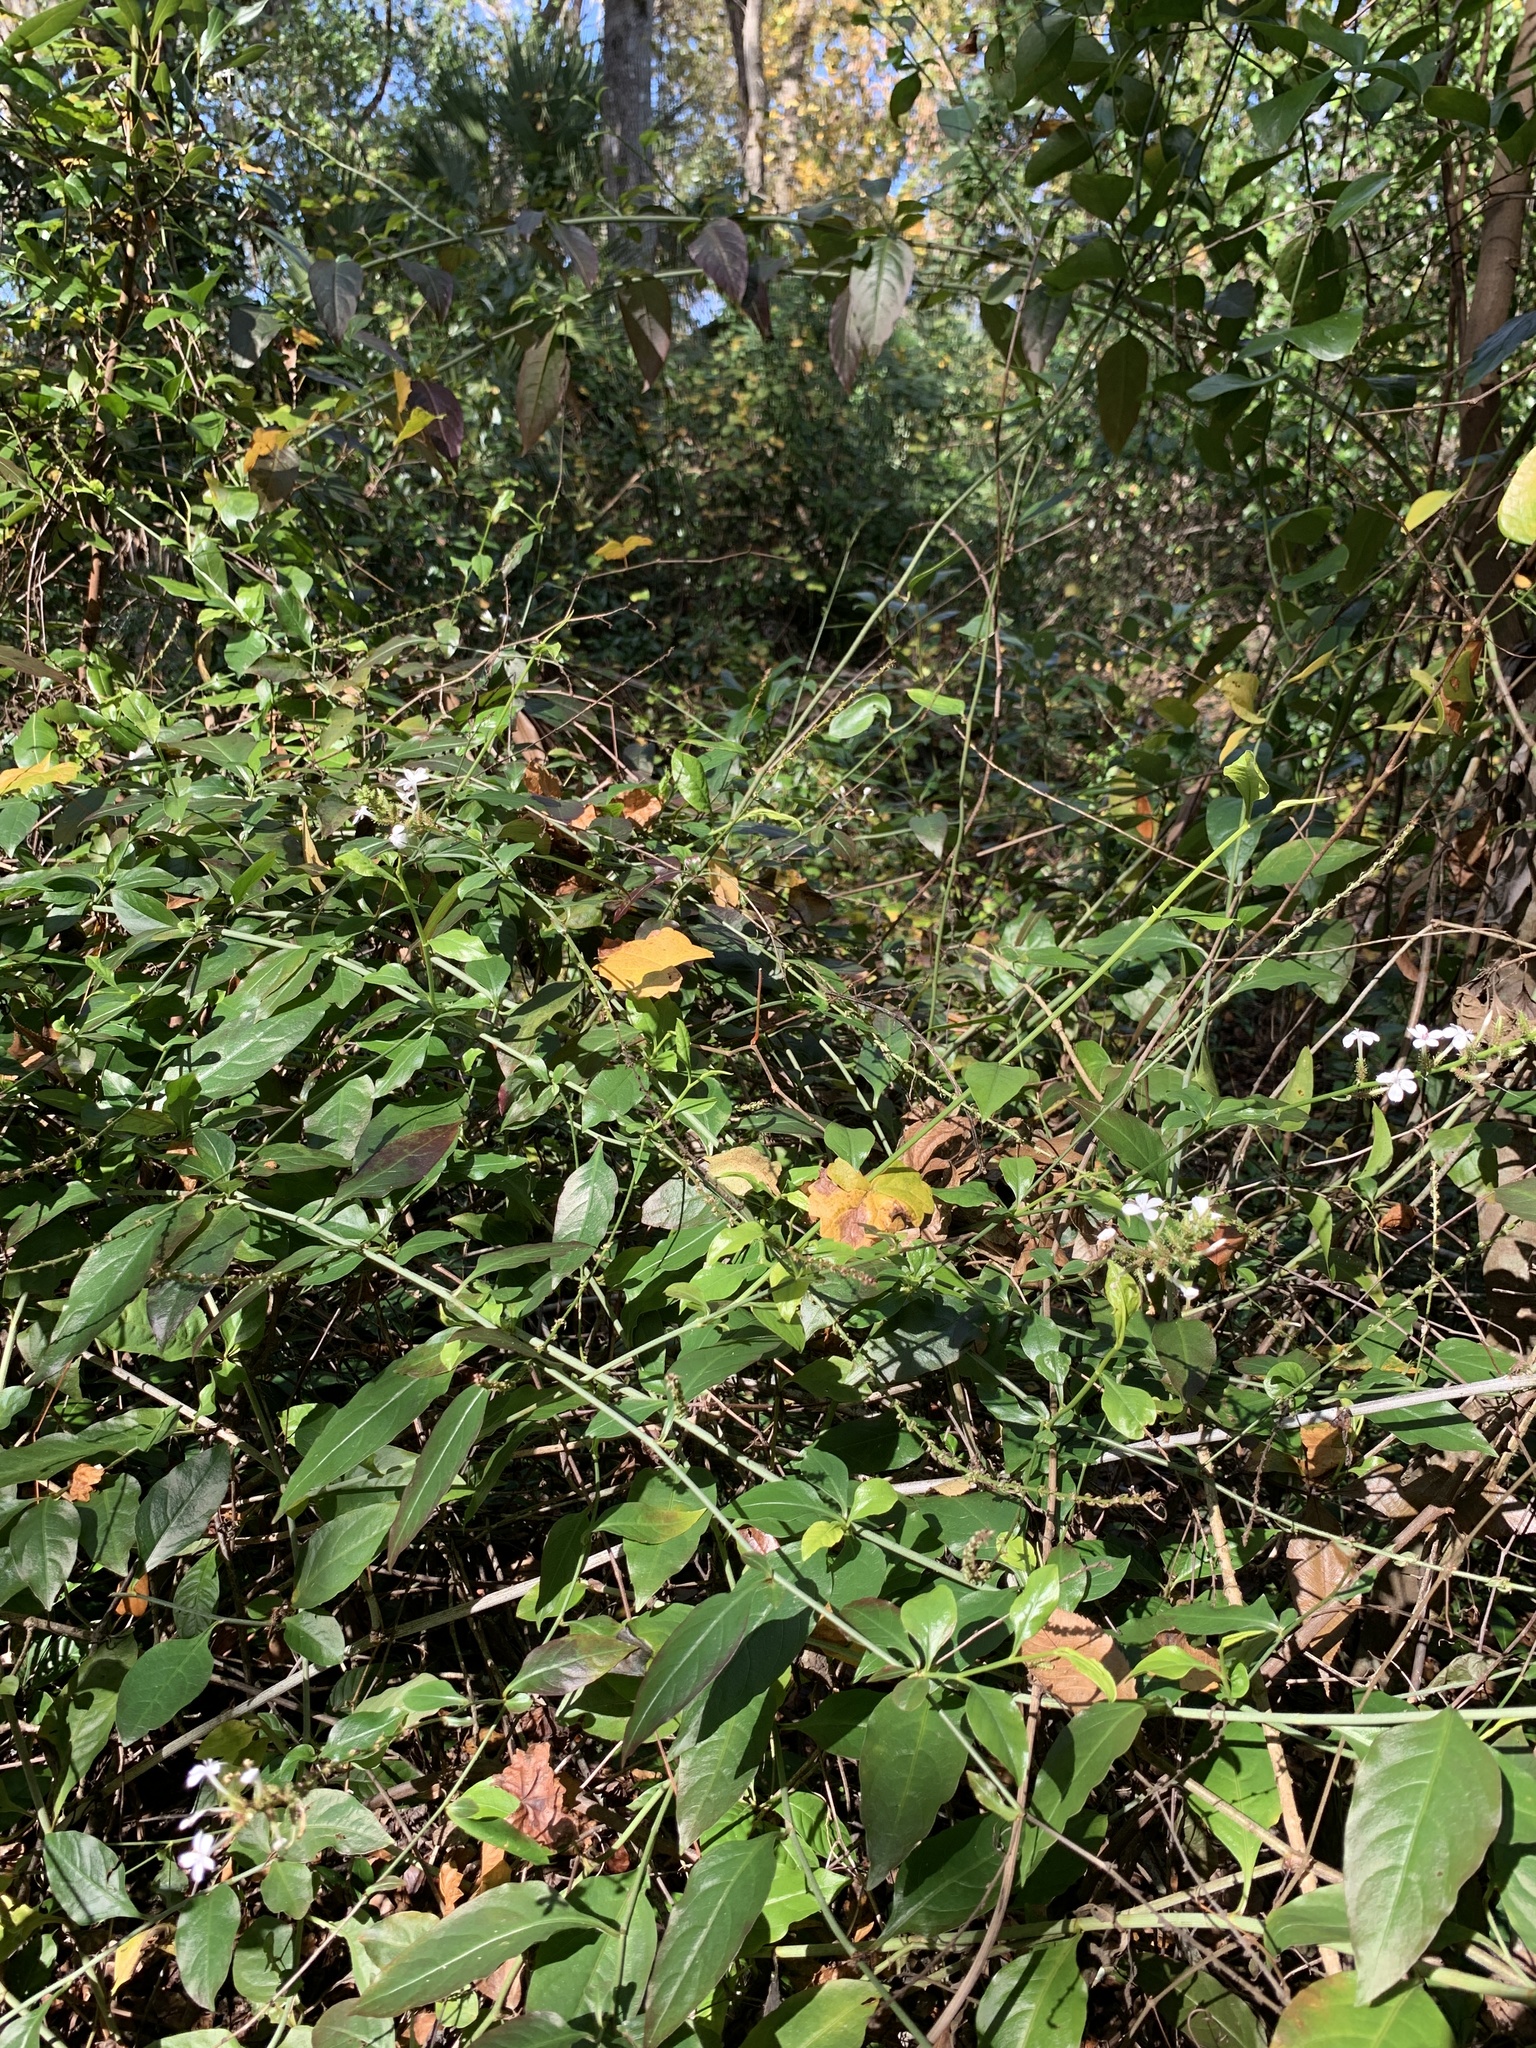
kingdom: Plantae
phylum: Tracheophyta
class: Magnoliopsida
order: Caryophyllales
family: Plumbaginaceae
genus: Plumbago
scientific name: Plumbago zeylanica
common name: Doctorbush
